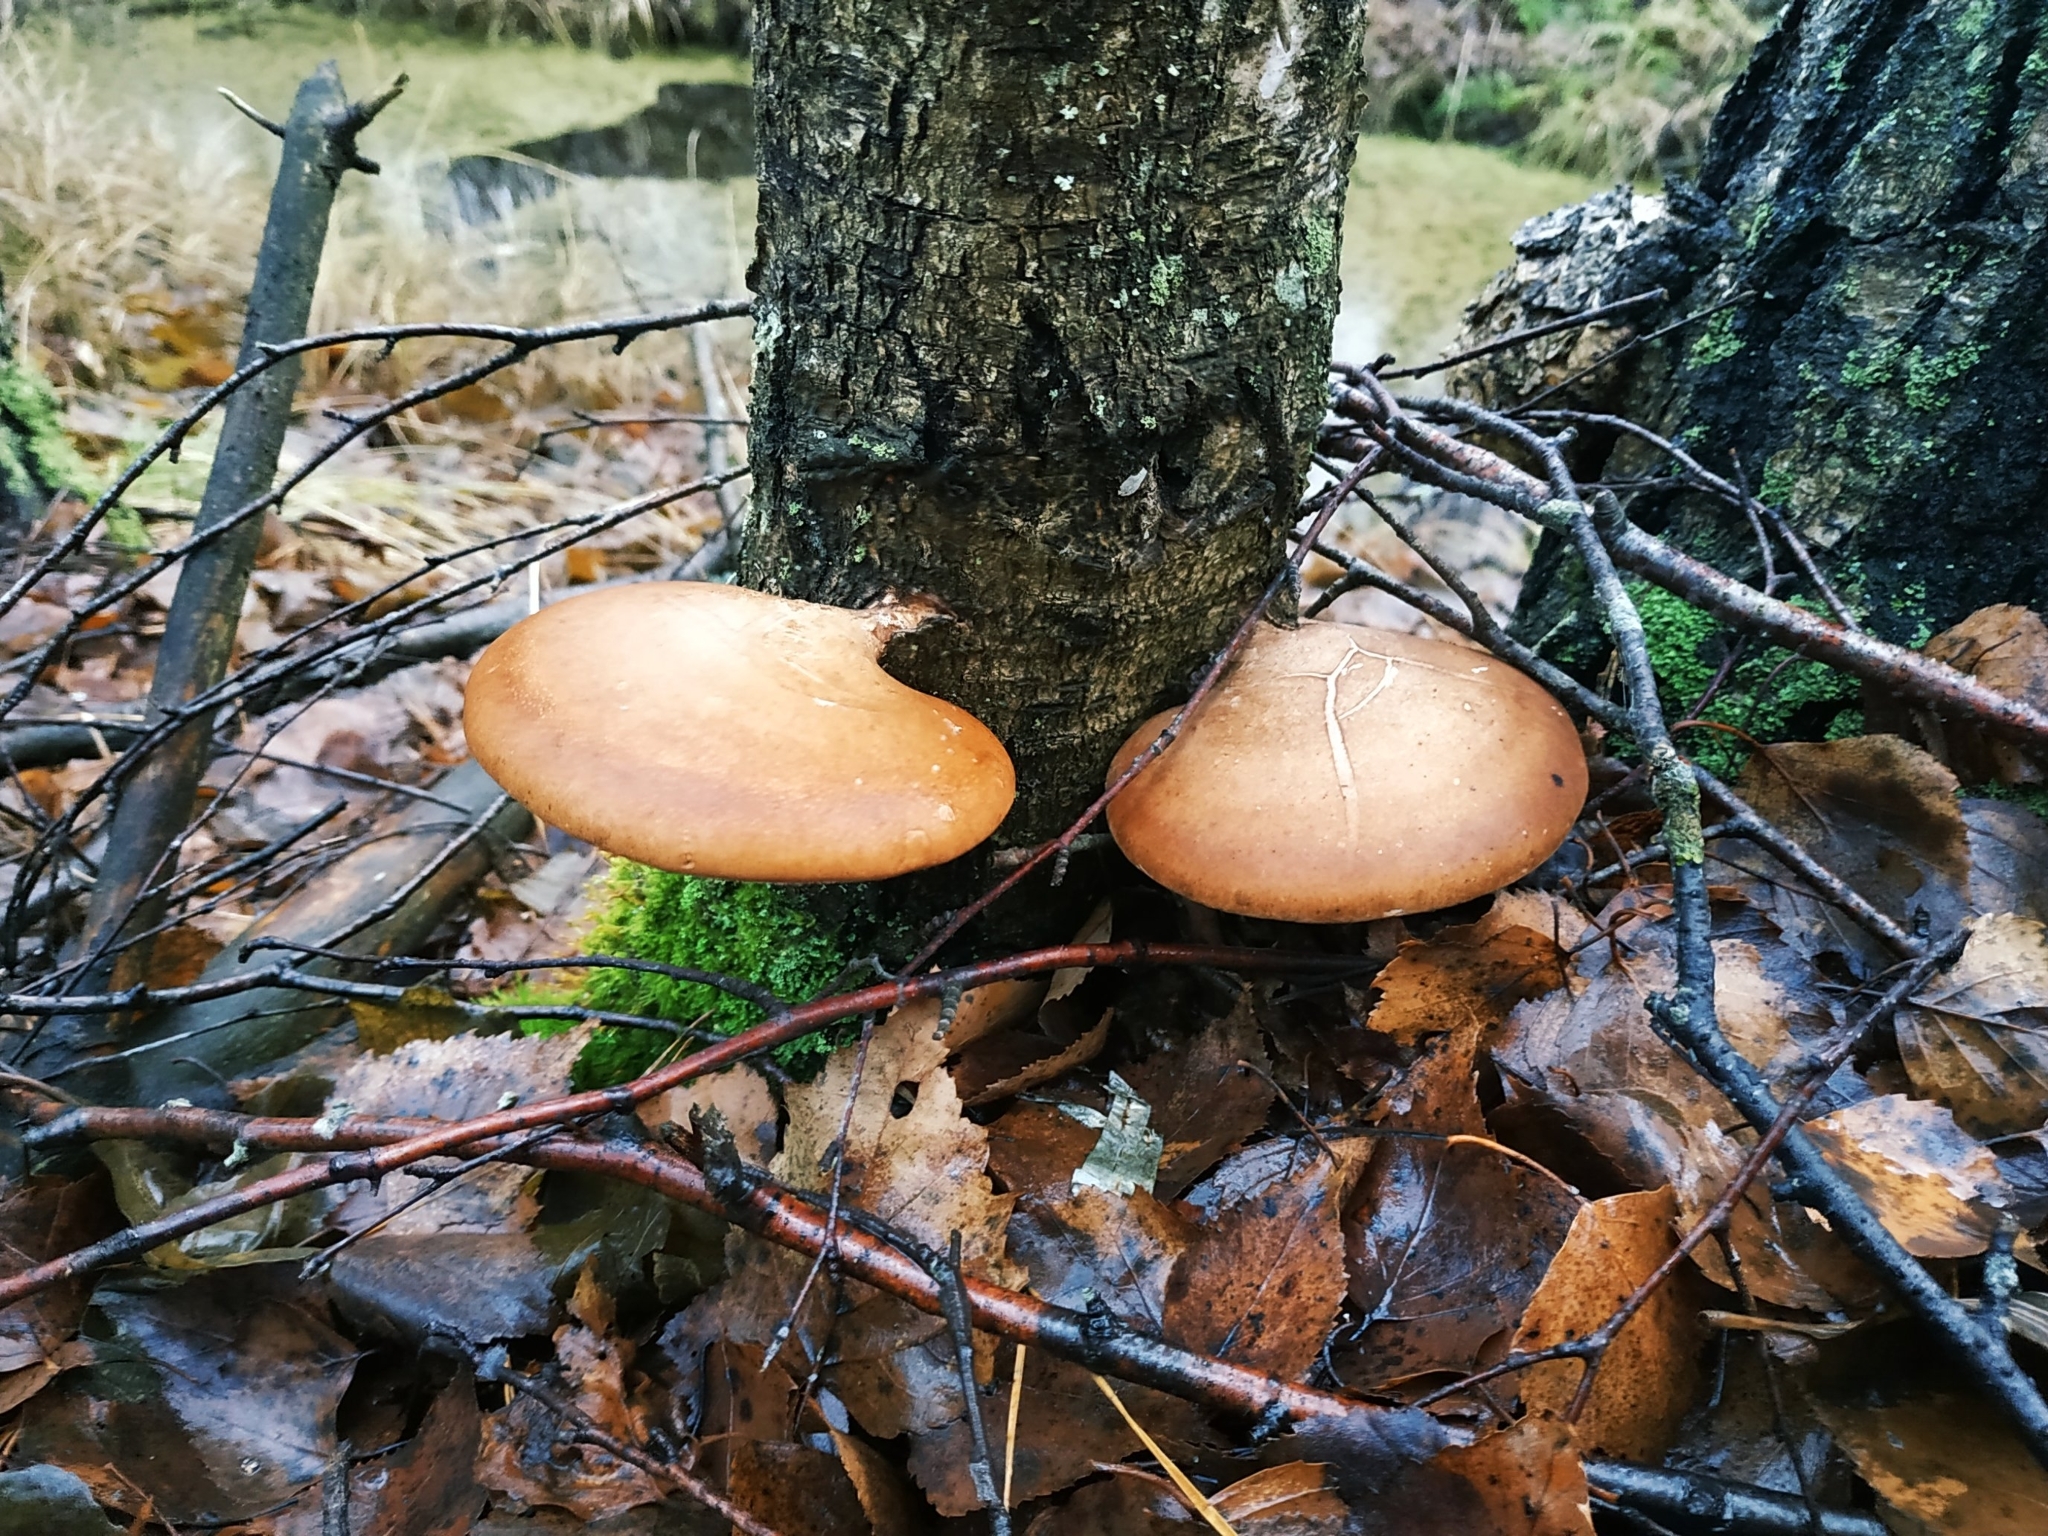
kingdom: Fungi
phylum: Basidiomycota
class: Agaricomycetes
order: Polyporales
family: Fomitopsidaceae
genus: Fomitopsis
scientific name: Fomitopsis betulina
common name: Birch polypore
